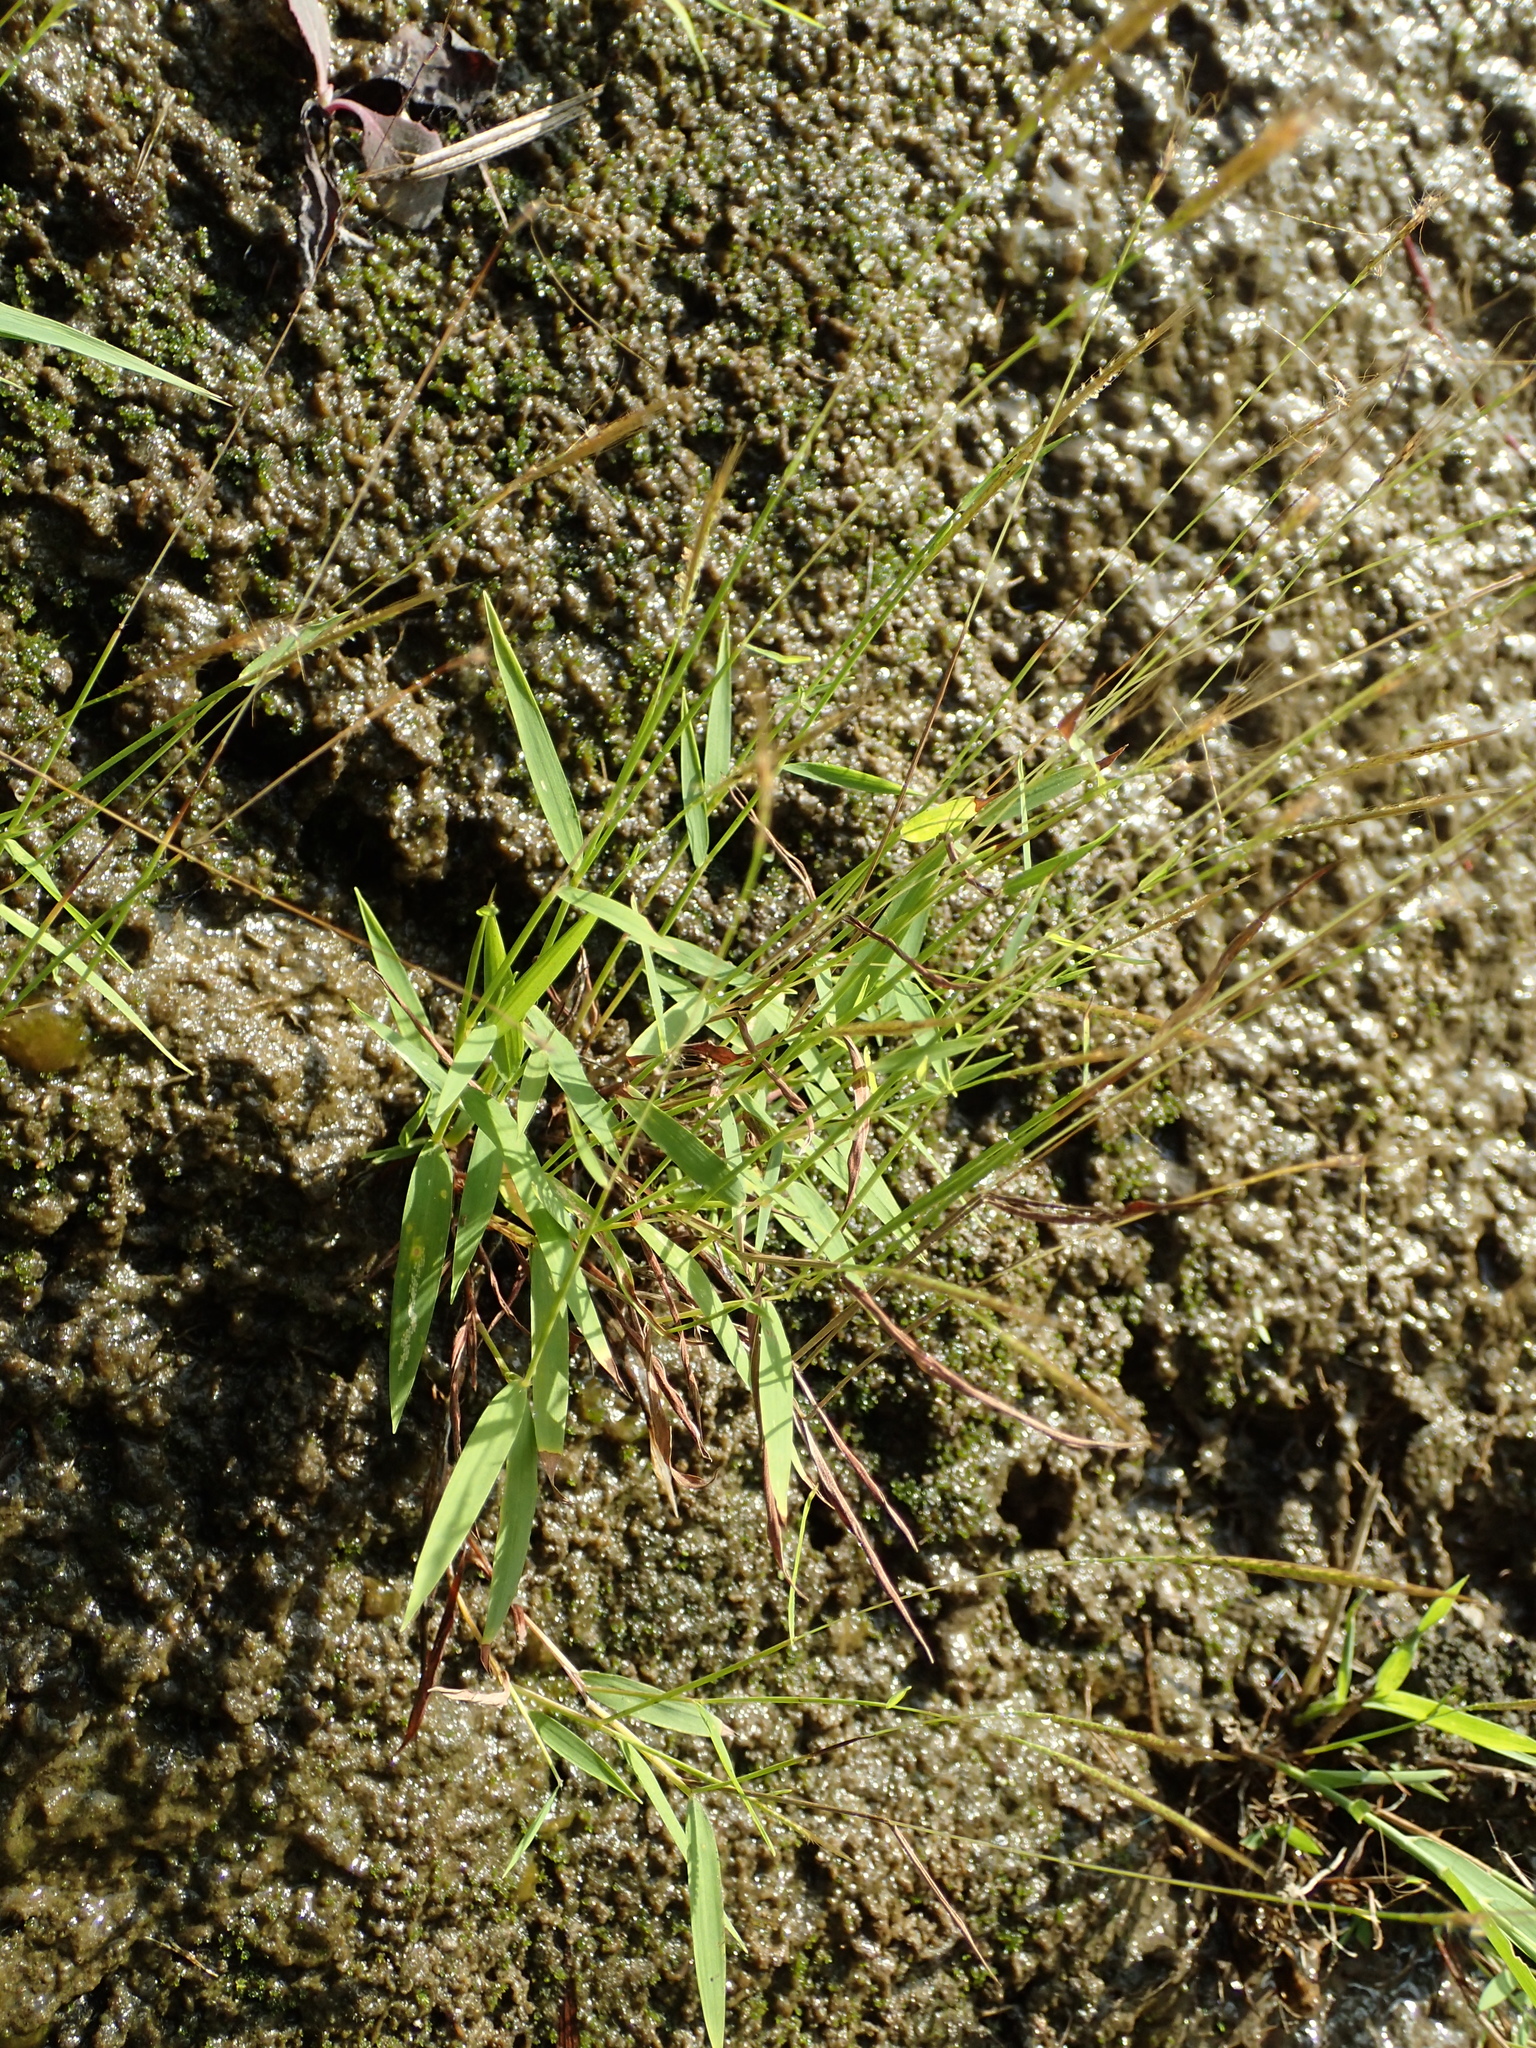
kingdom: Plantae
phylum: Tracheophyta
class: Liliopsida
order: Poales
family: Poaceae
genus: Pogonatherum
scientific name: Pogonatherum crinitum
